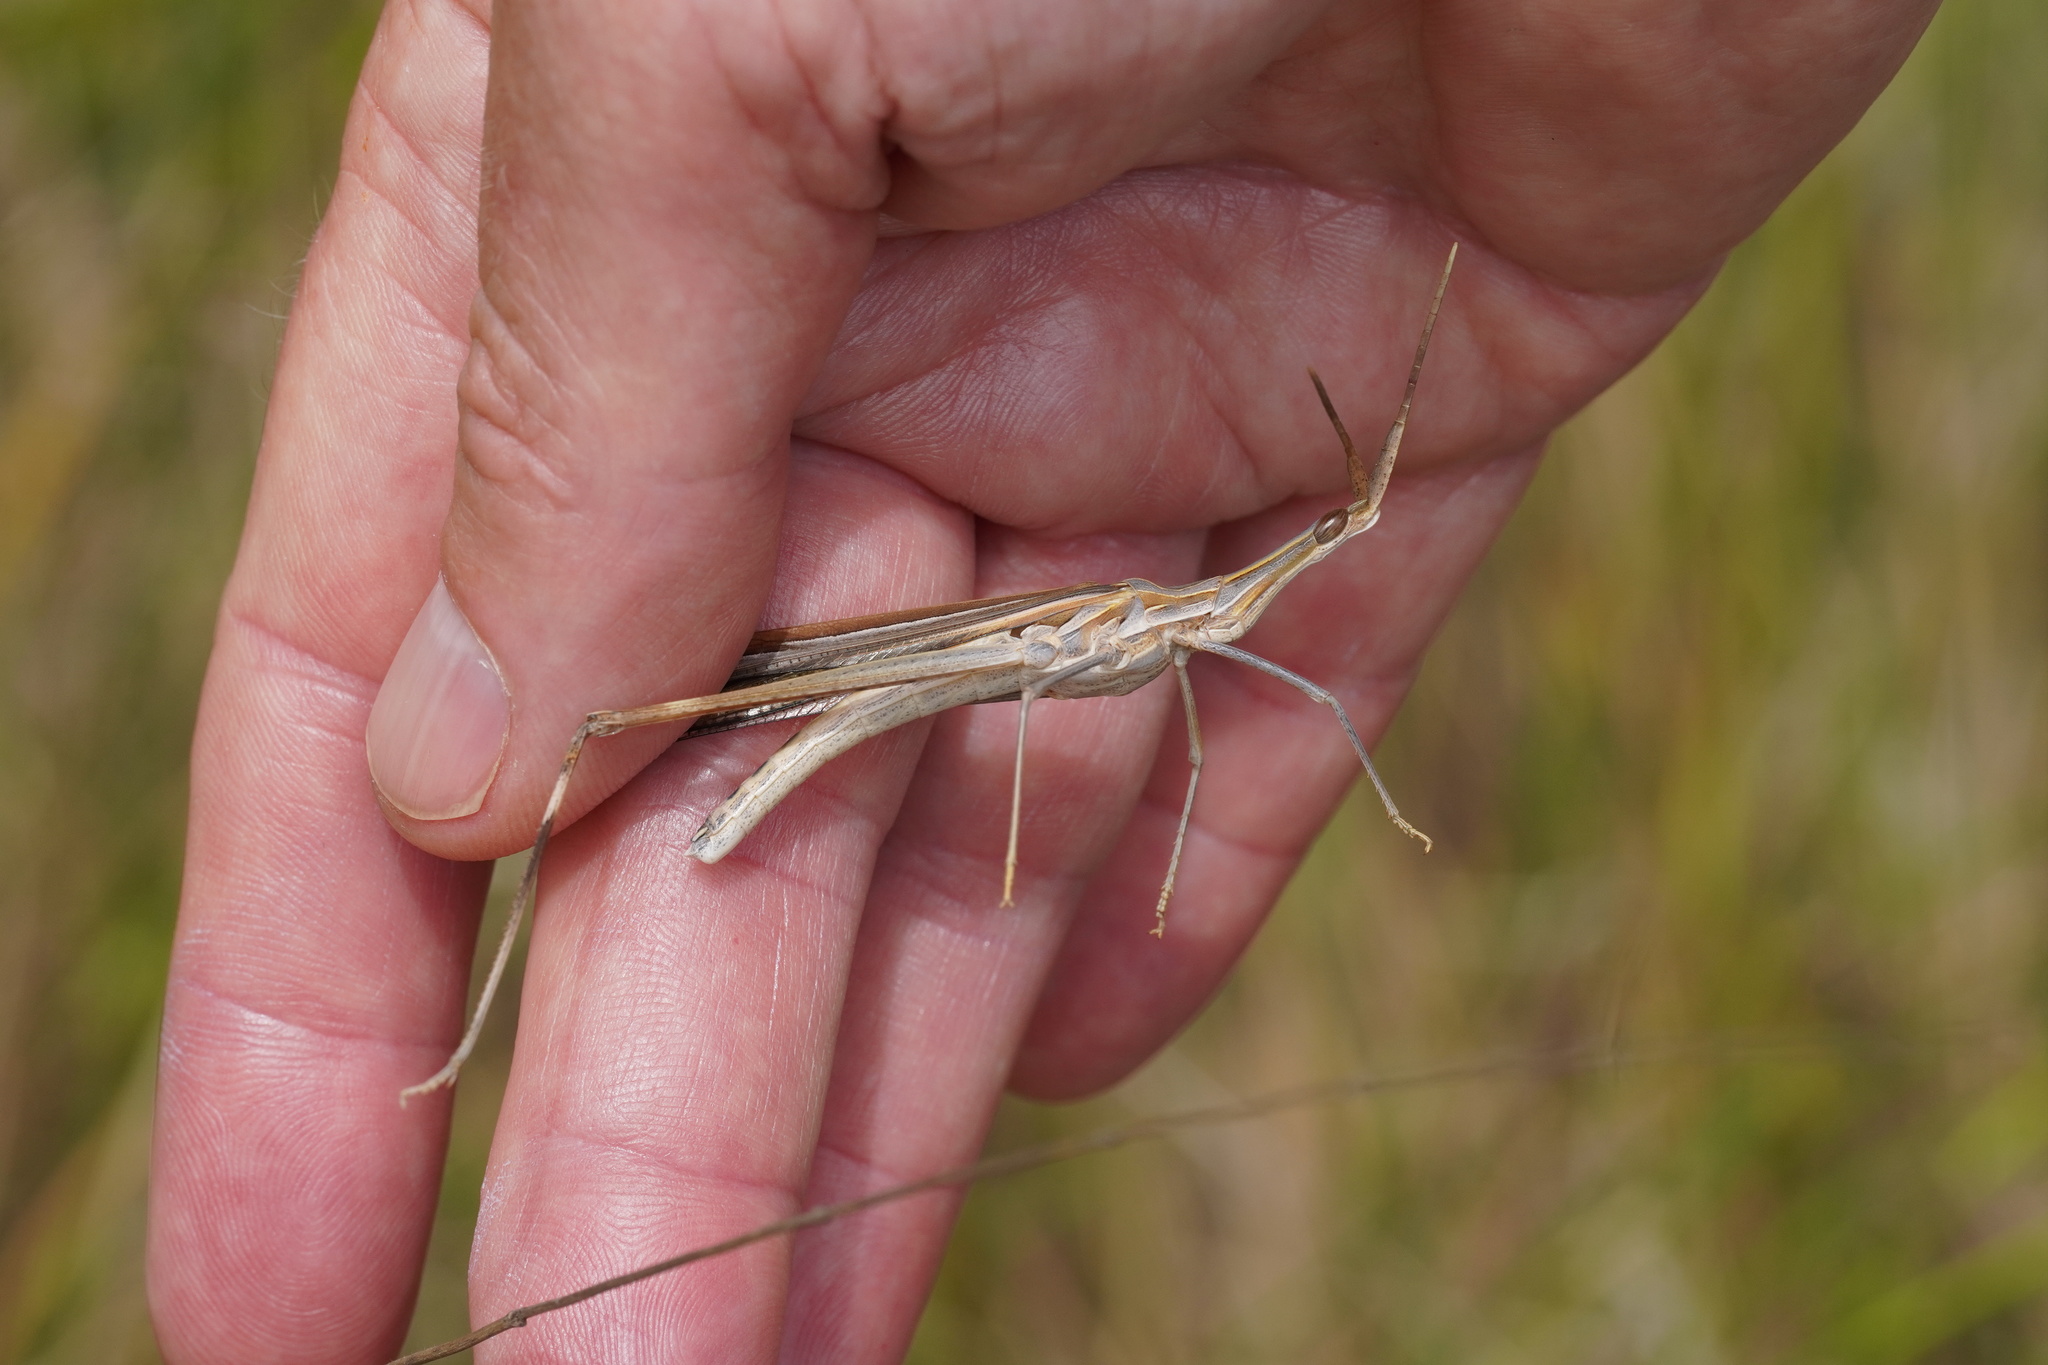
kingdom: Animalia
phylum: Arthropoda
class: Insecta
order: Orthoptera
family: Acrididae
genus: Truxalis
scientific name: Truxalis nasuta
